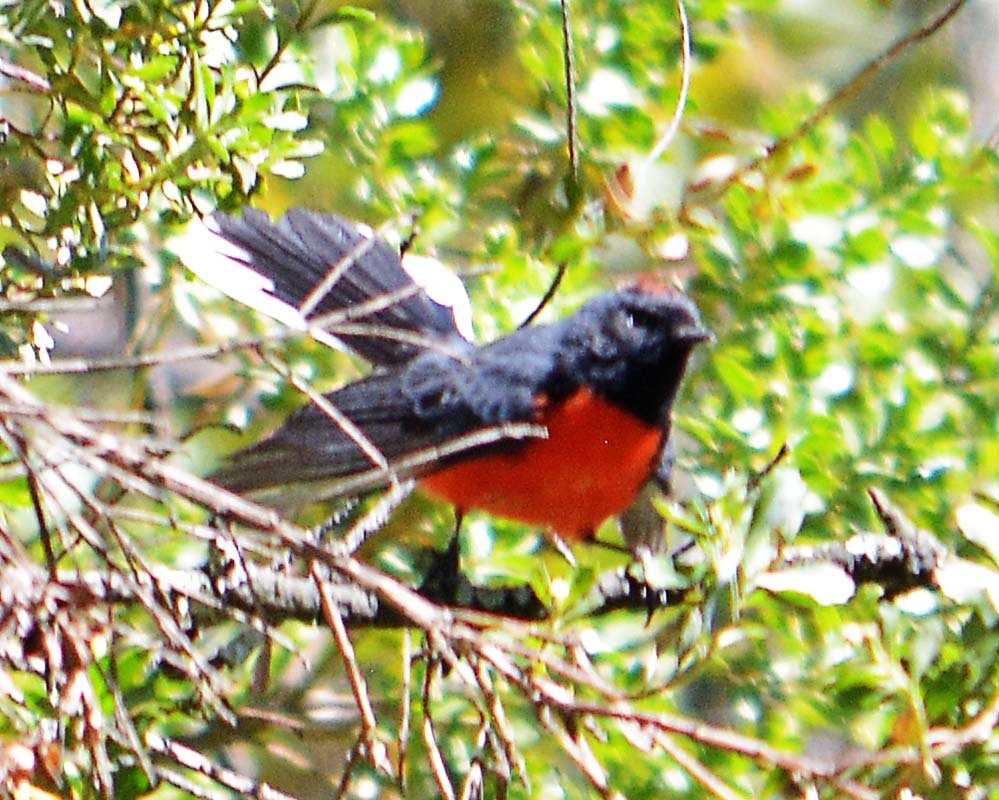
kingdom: Animalia
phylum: Chordata
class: Aves
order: Passeriformes
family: Parulidae
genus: Myioborus
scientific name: Myioborus miniatus
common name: Slate-throated redstart
